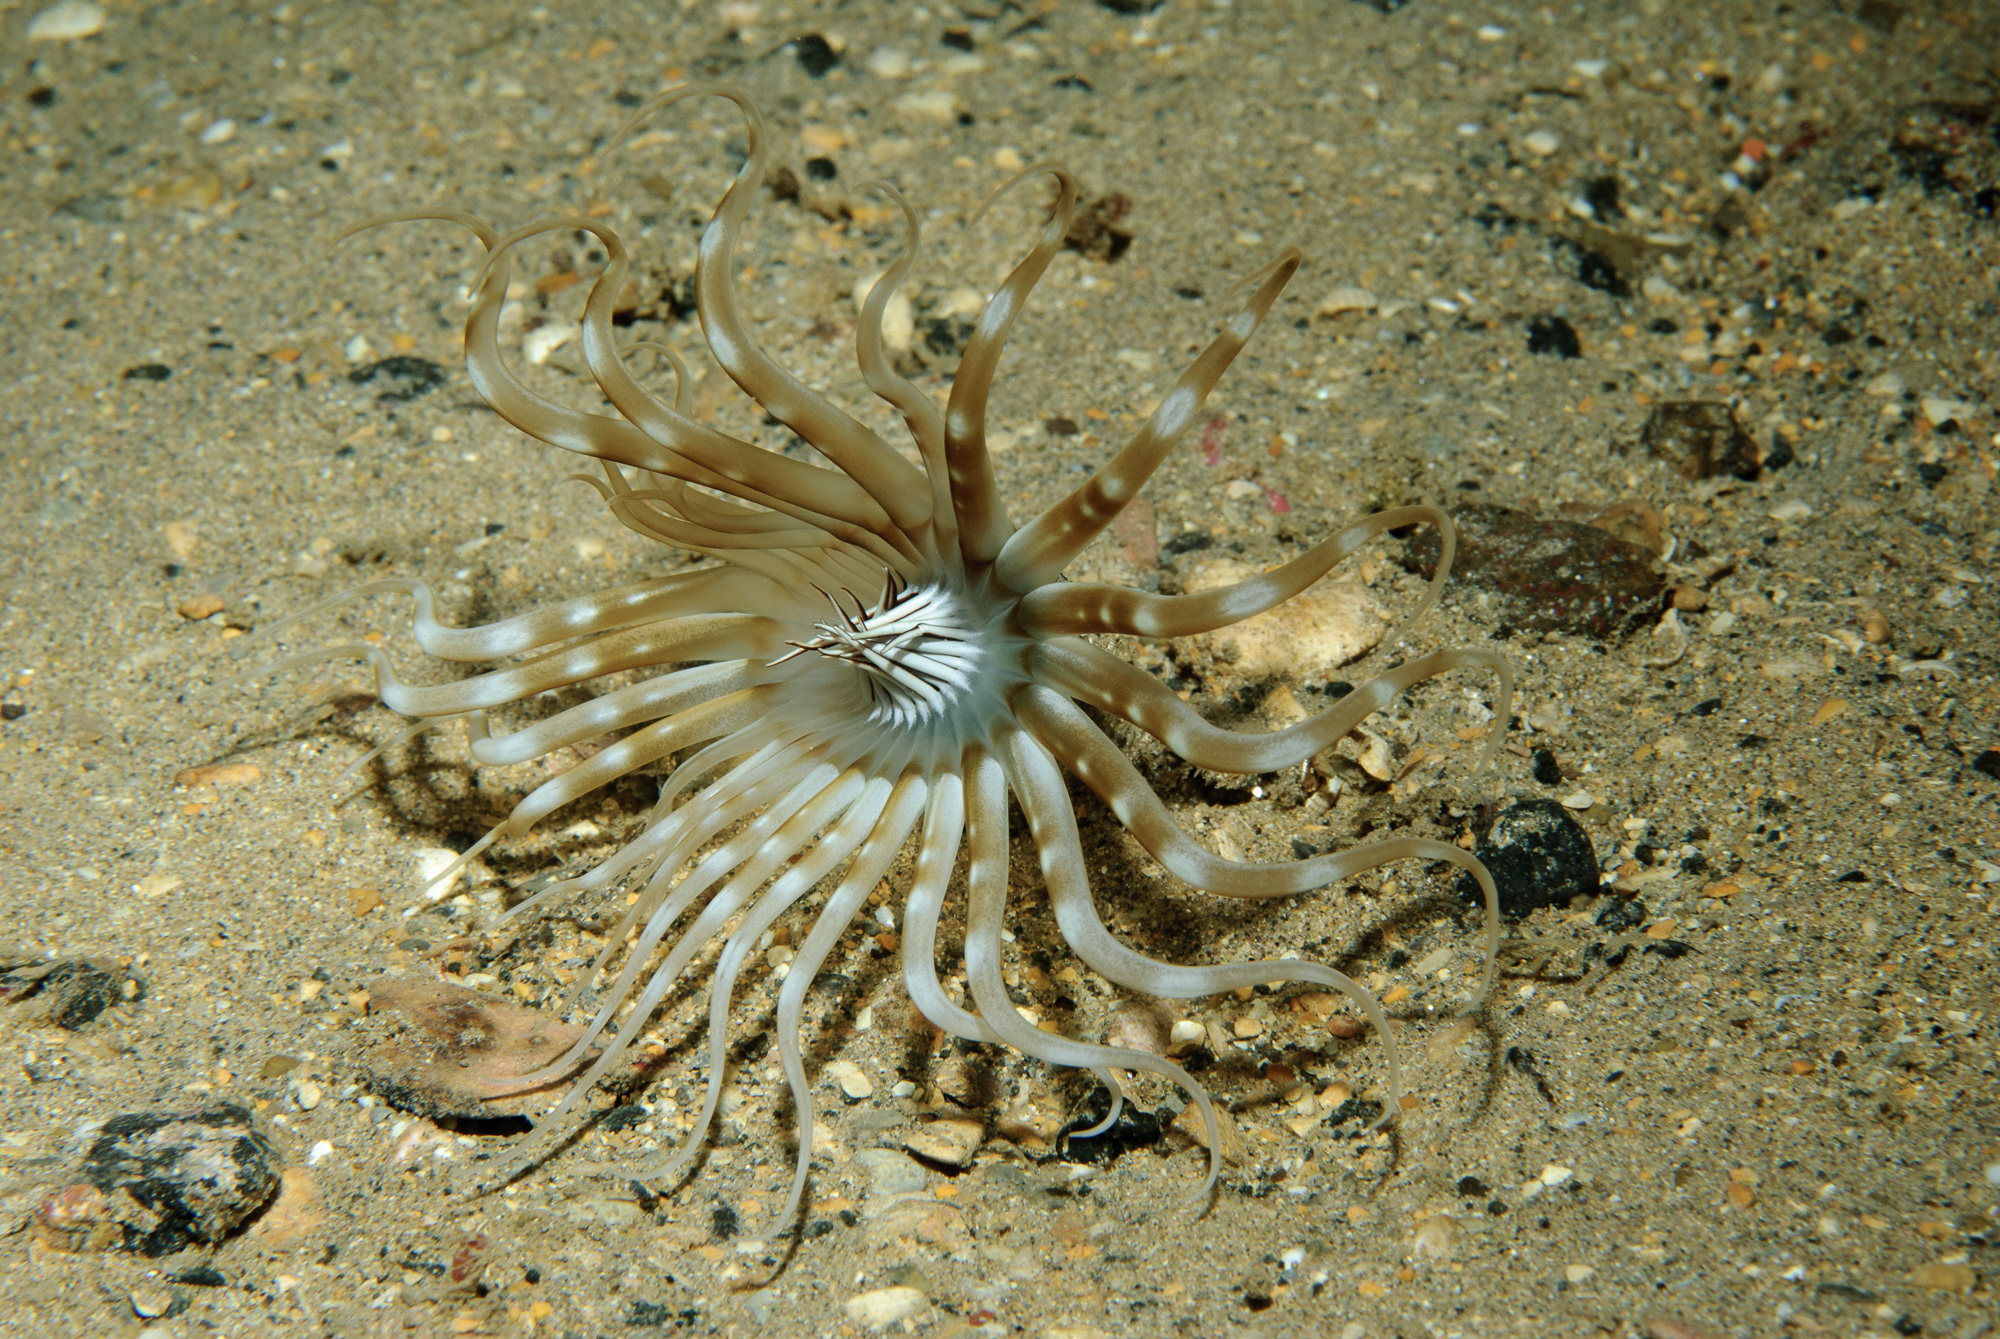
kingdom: Animalia
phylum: Cnidaria
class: Anthozoa
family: Arachnactidae
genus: Arachnanthus
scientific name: Arachnanthus sarsi
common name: Scarce tube-dwelling anemone
